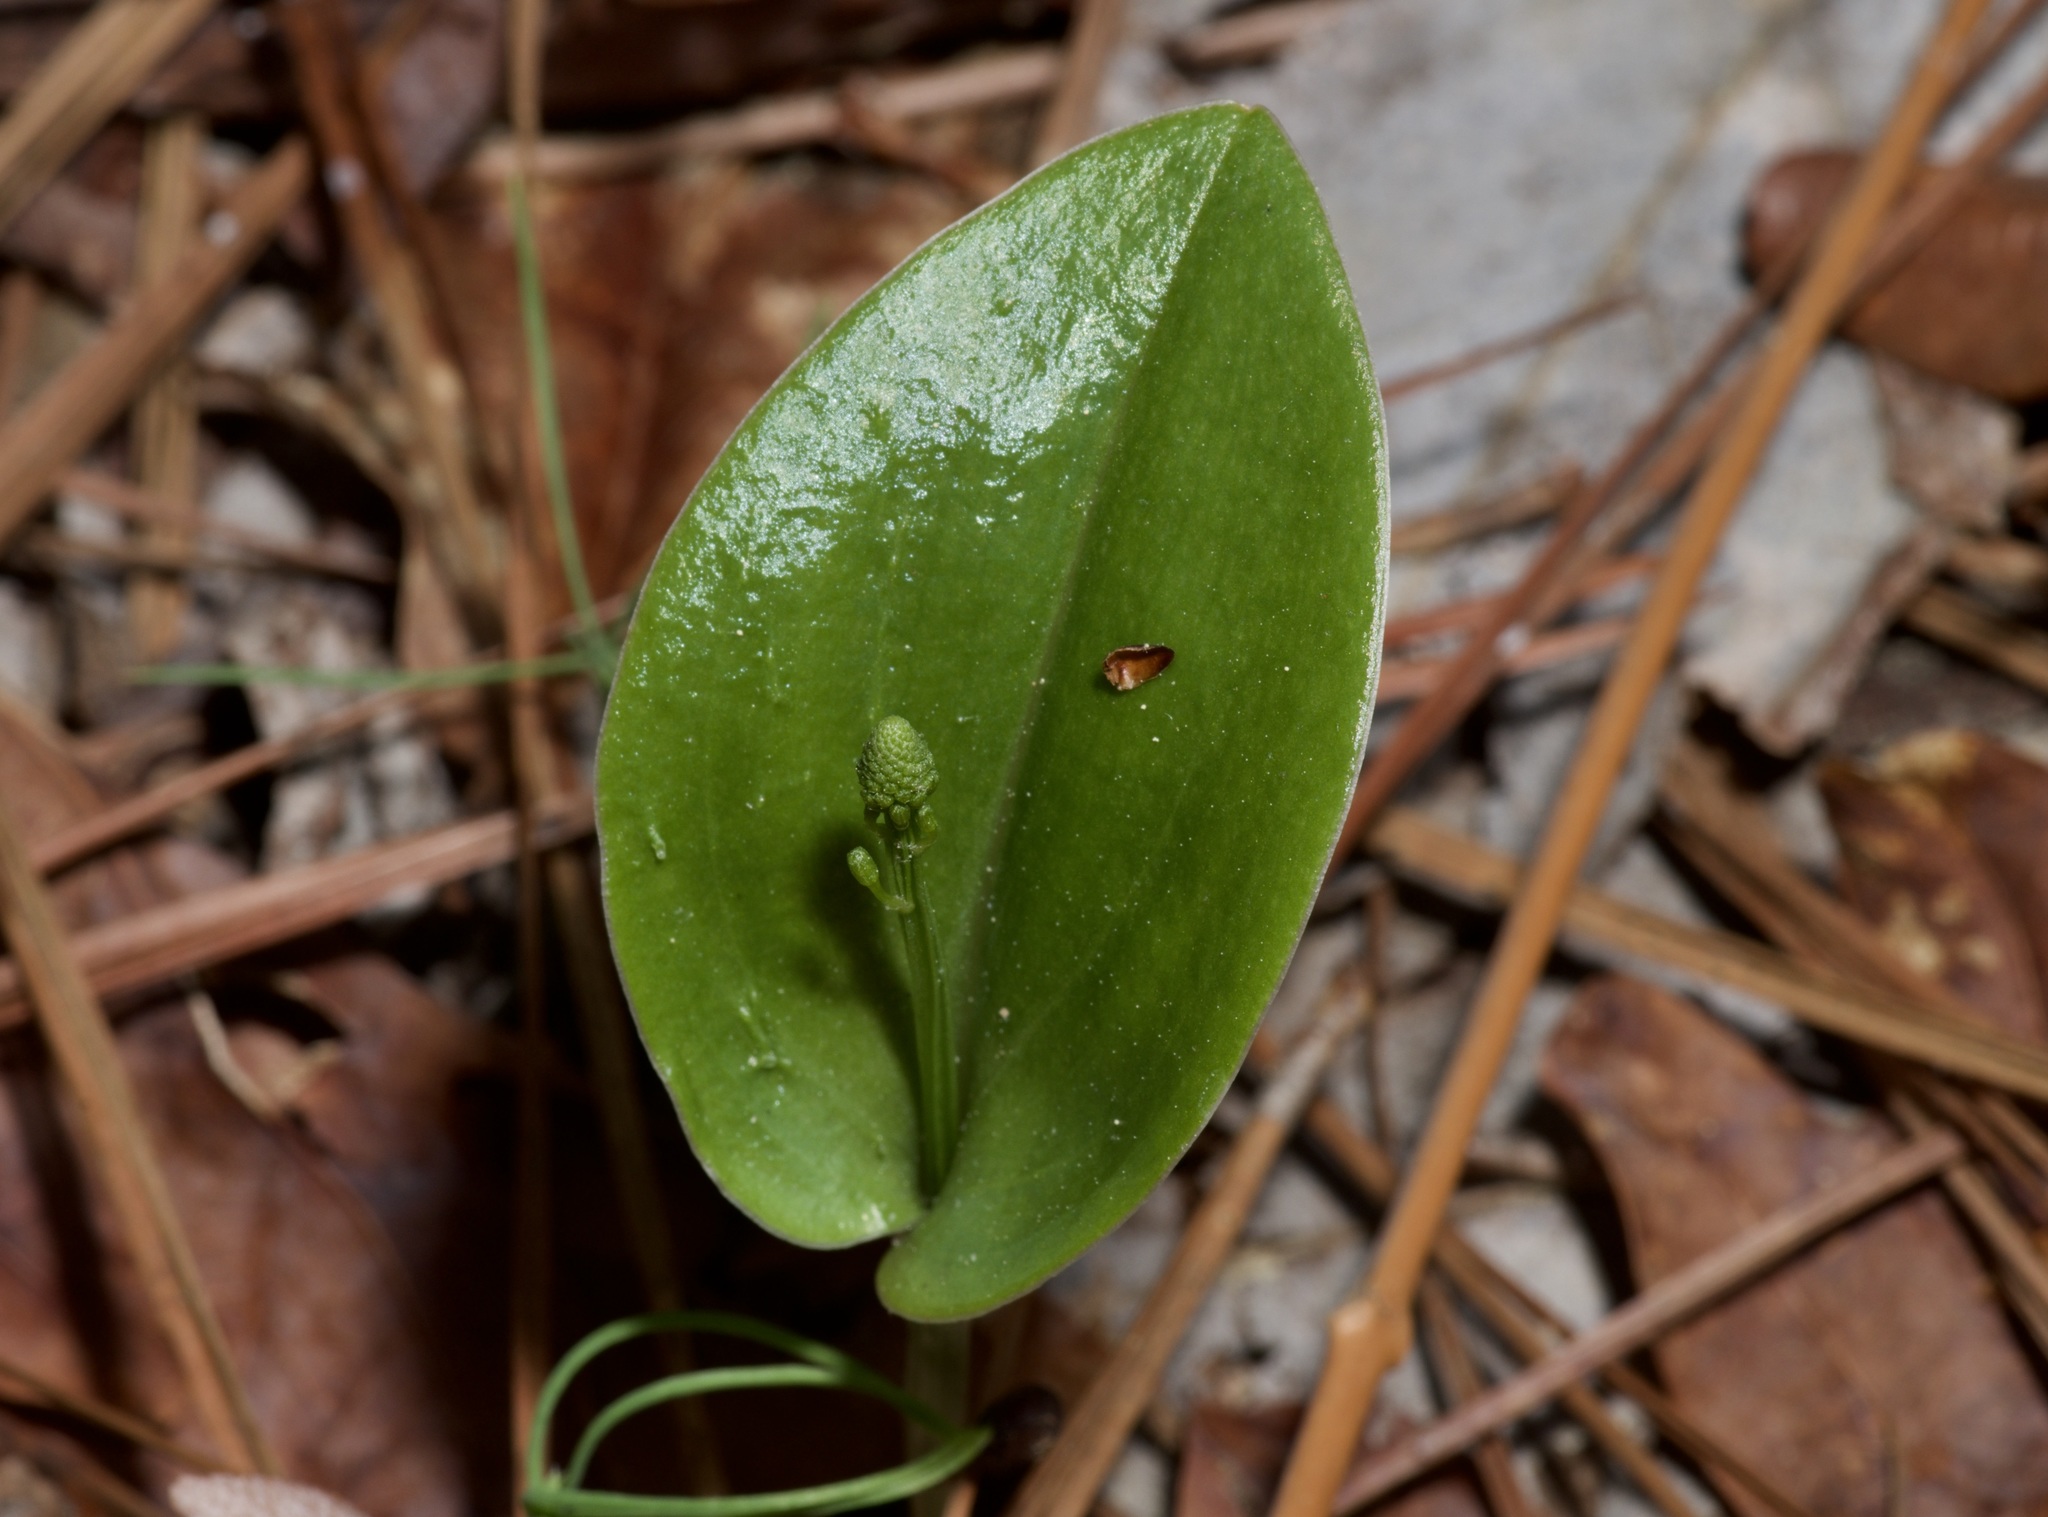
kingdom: Plantae
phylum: Tracheophyta
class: Liliopsida
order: Asparagales
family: Orchidaceae
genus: Malaxis
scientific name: Malaxis unifolia
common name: Green adder's-mouth
